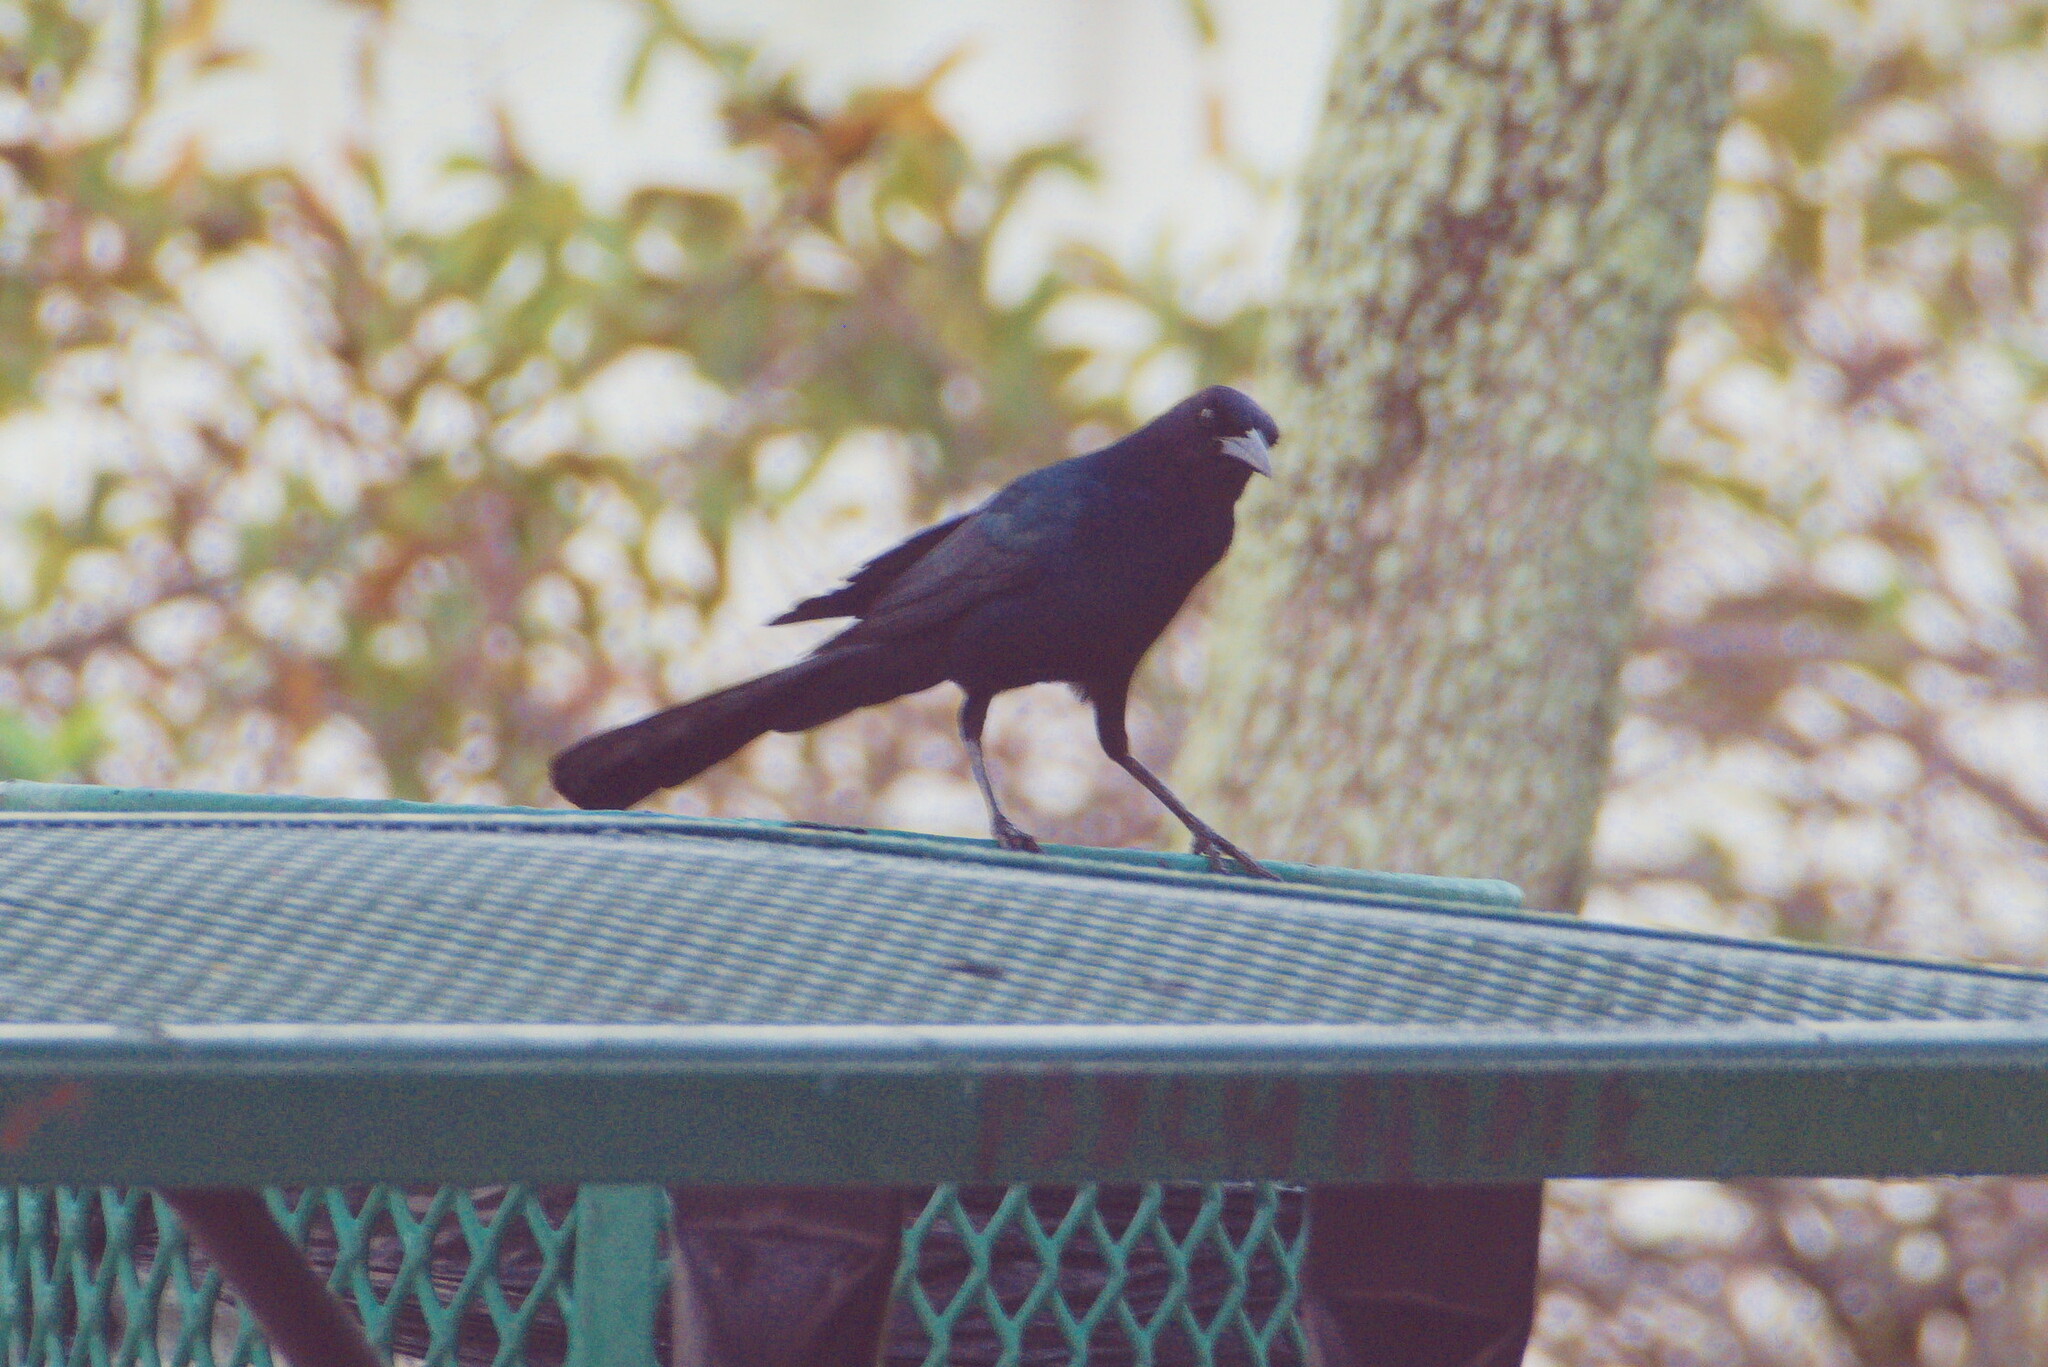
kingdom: Animalia
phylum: Chordata
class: Aves
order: Passeriformes
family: Icteridae
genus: Quiscalus
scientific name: Quiscalus major
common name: Boat-tailed grackle
